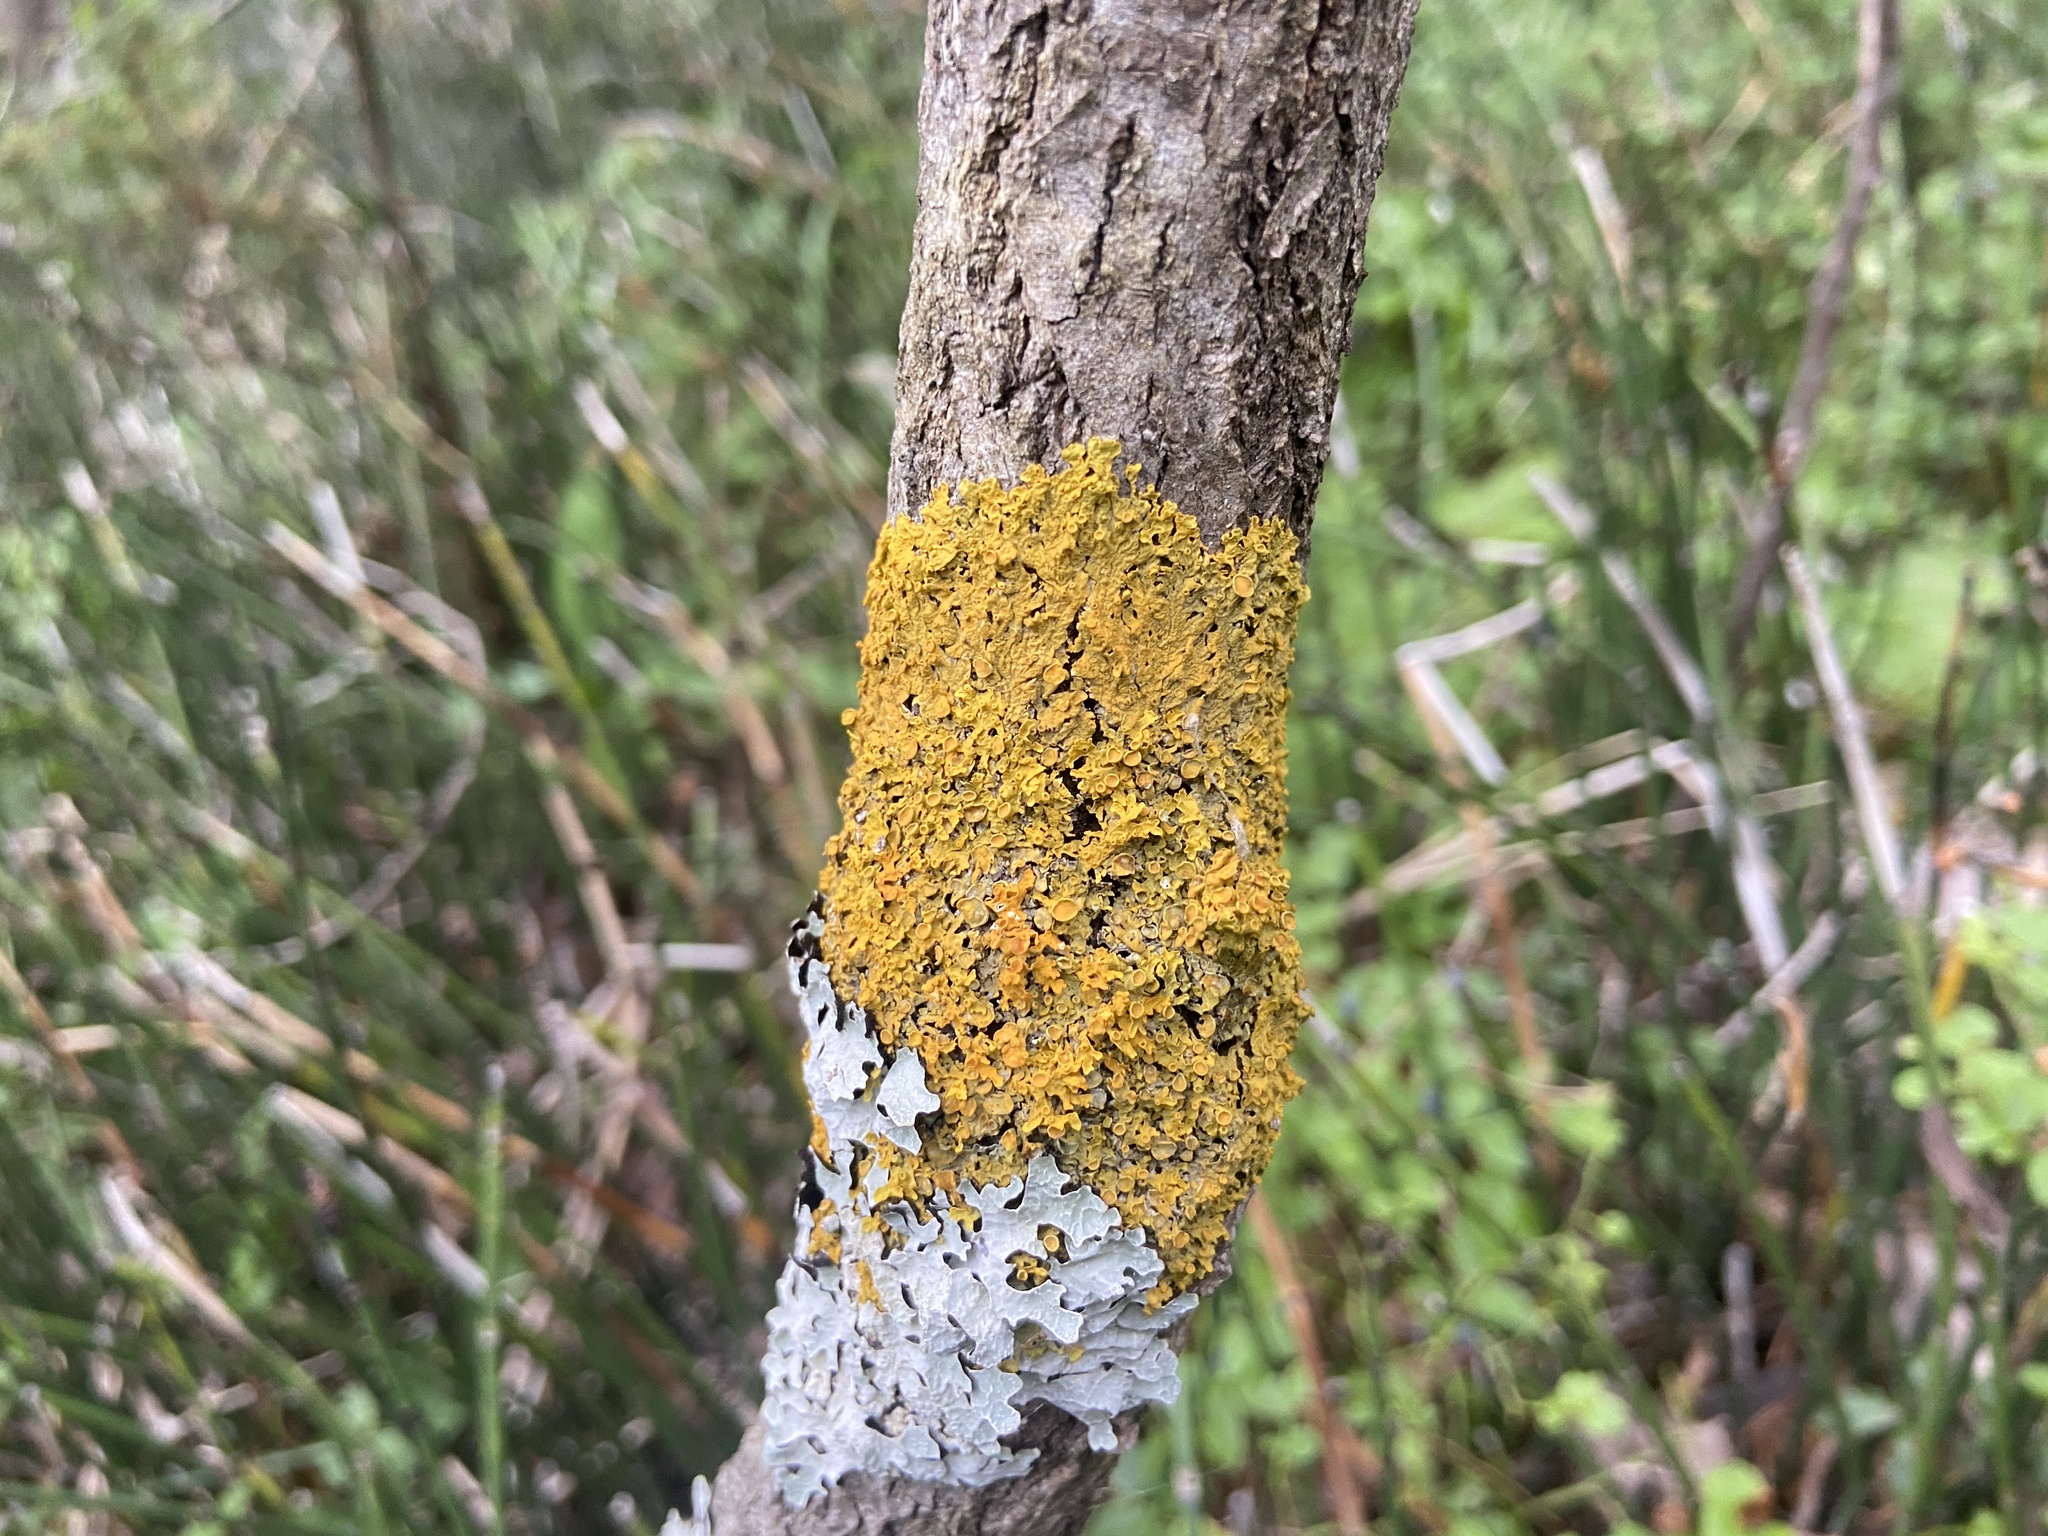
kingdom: Fungi
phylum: Ascomycota
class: Lecanoromycetes
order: Teloschistales
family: Teloschistaceae
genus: Xanthoria
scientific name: Xanthoria parietina
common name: Common orange lichen
